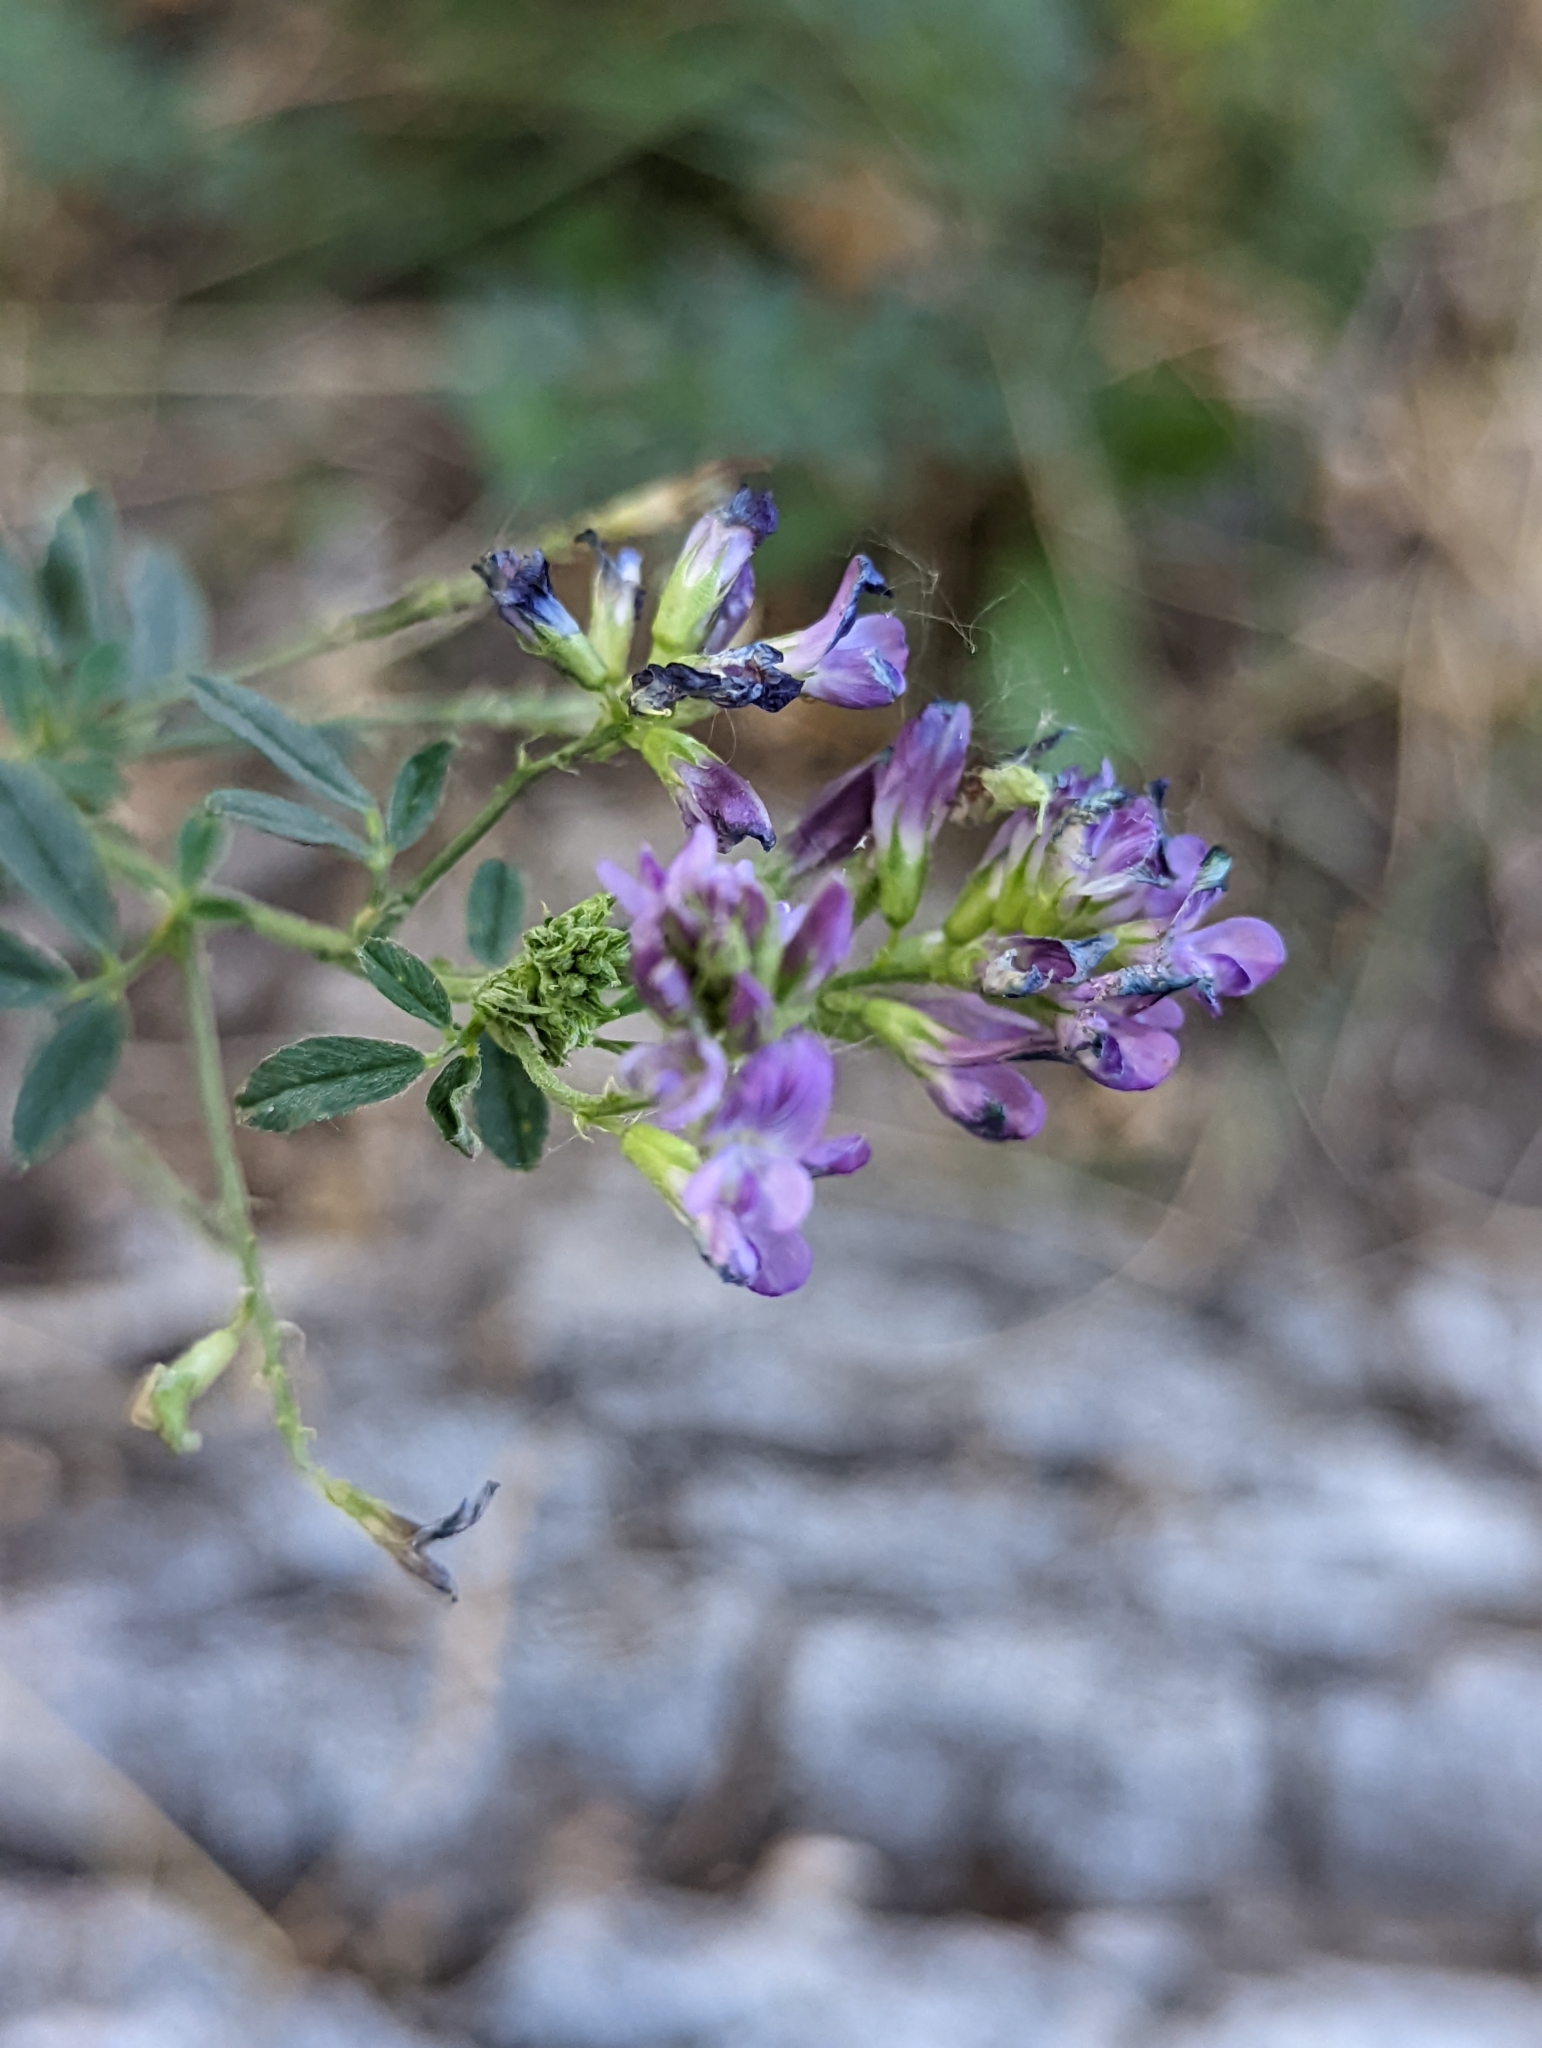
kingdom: Plantae
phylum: Tracheophyta
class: Magnoliopsida
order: Fabales
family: Fabaceae
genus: Medicago
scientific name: Medicago sativa
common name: Alfalfa
